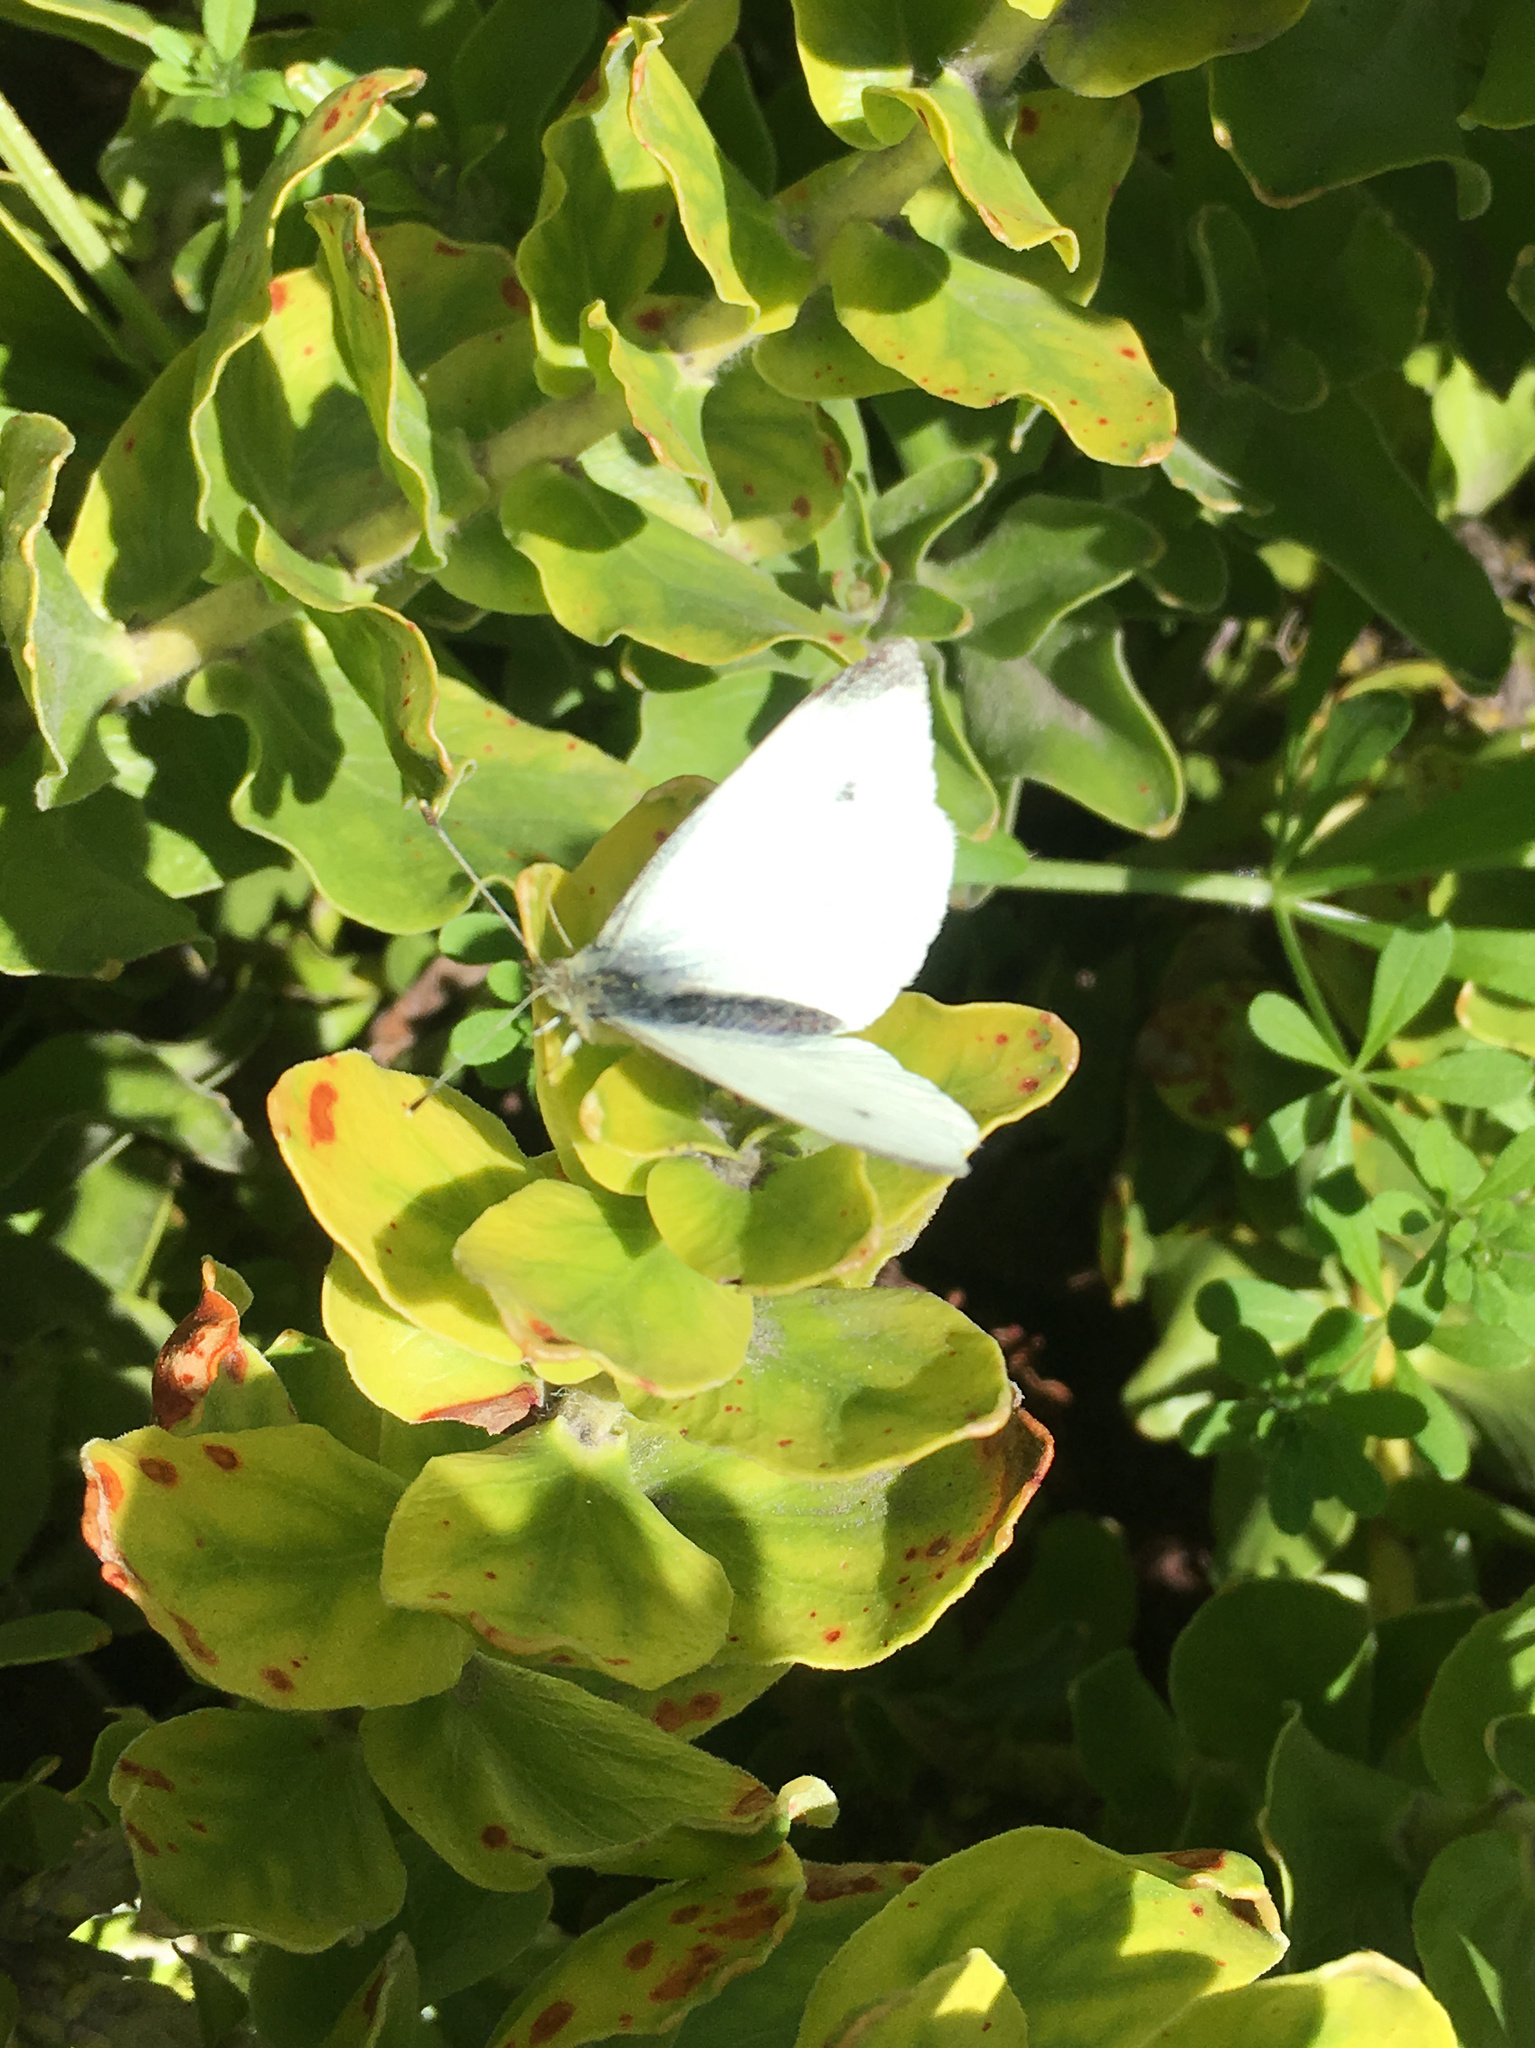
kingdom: Animalia
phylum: Arthropoda
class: Insecta
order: Lepidoptera
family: Pieridae
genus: Pieris
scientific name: Pieris rapae
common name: Small white
